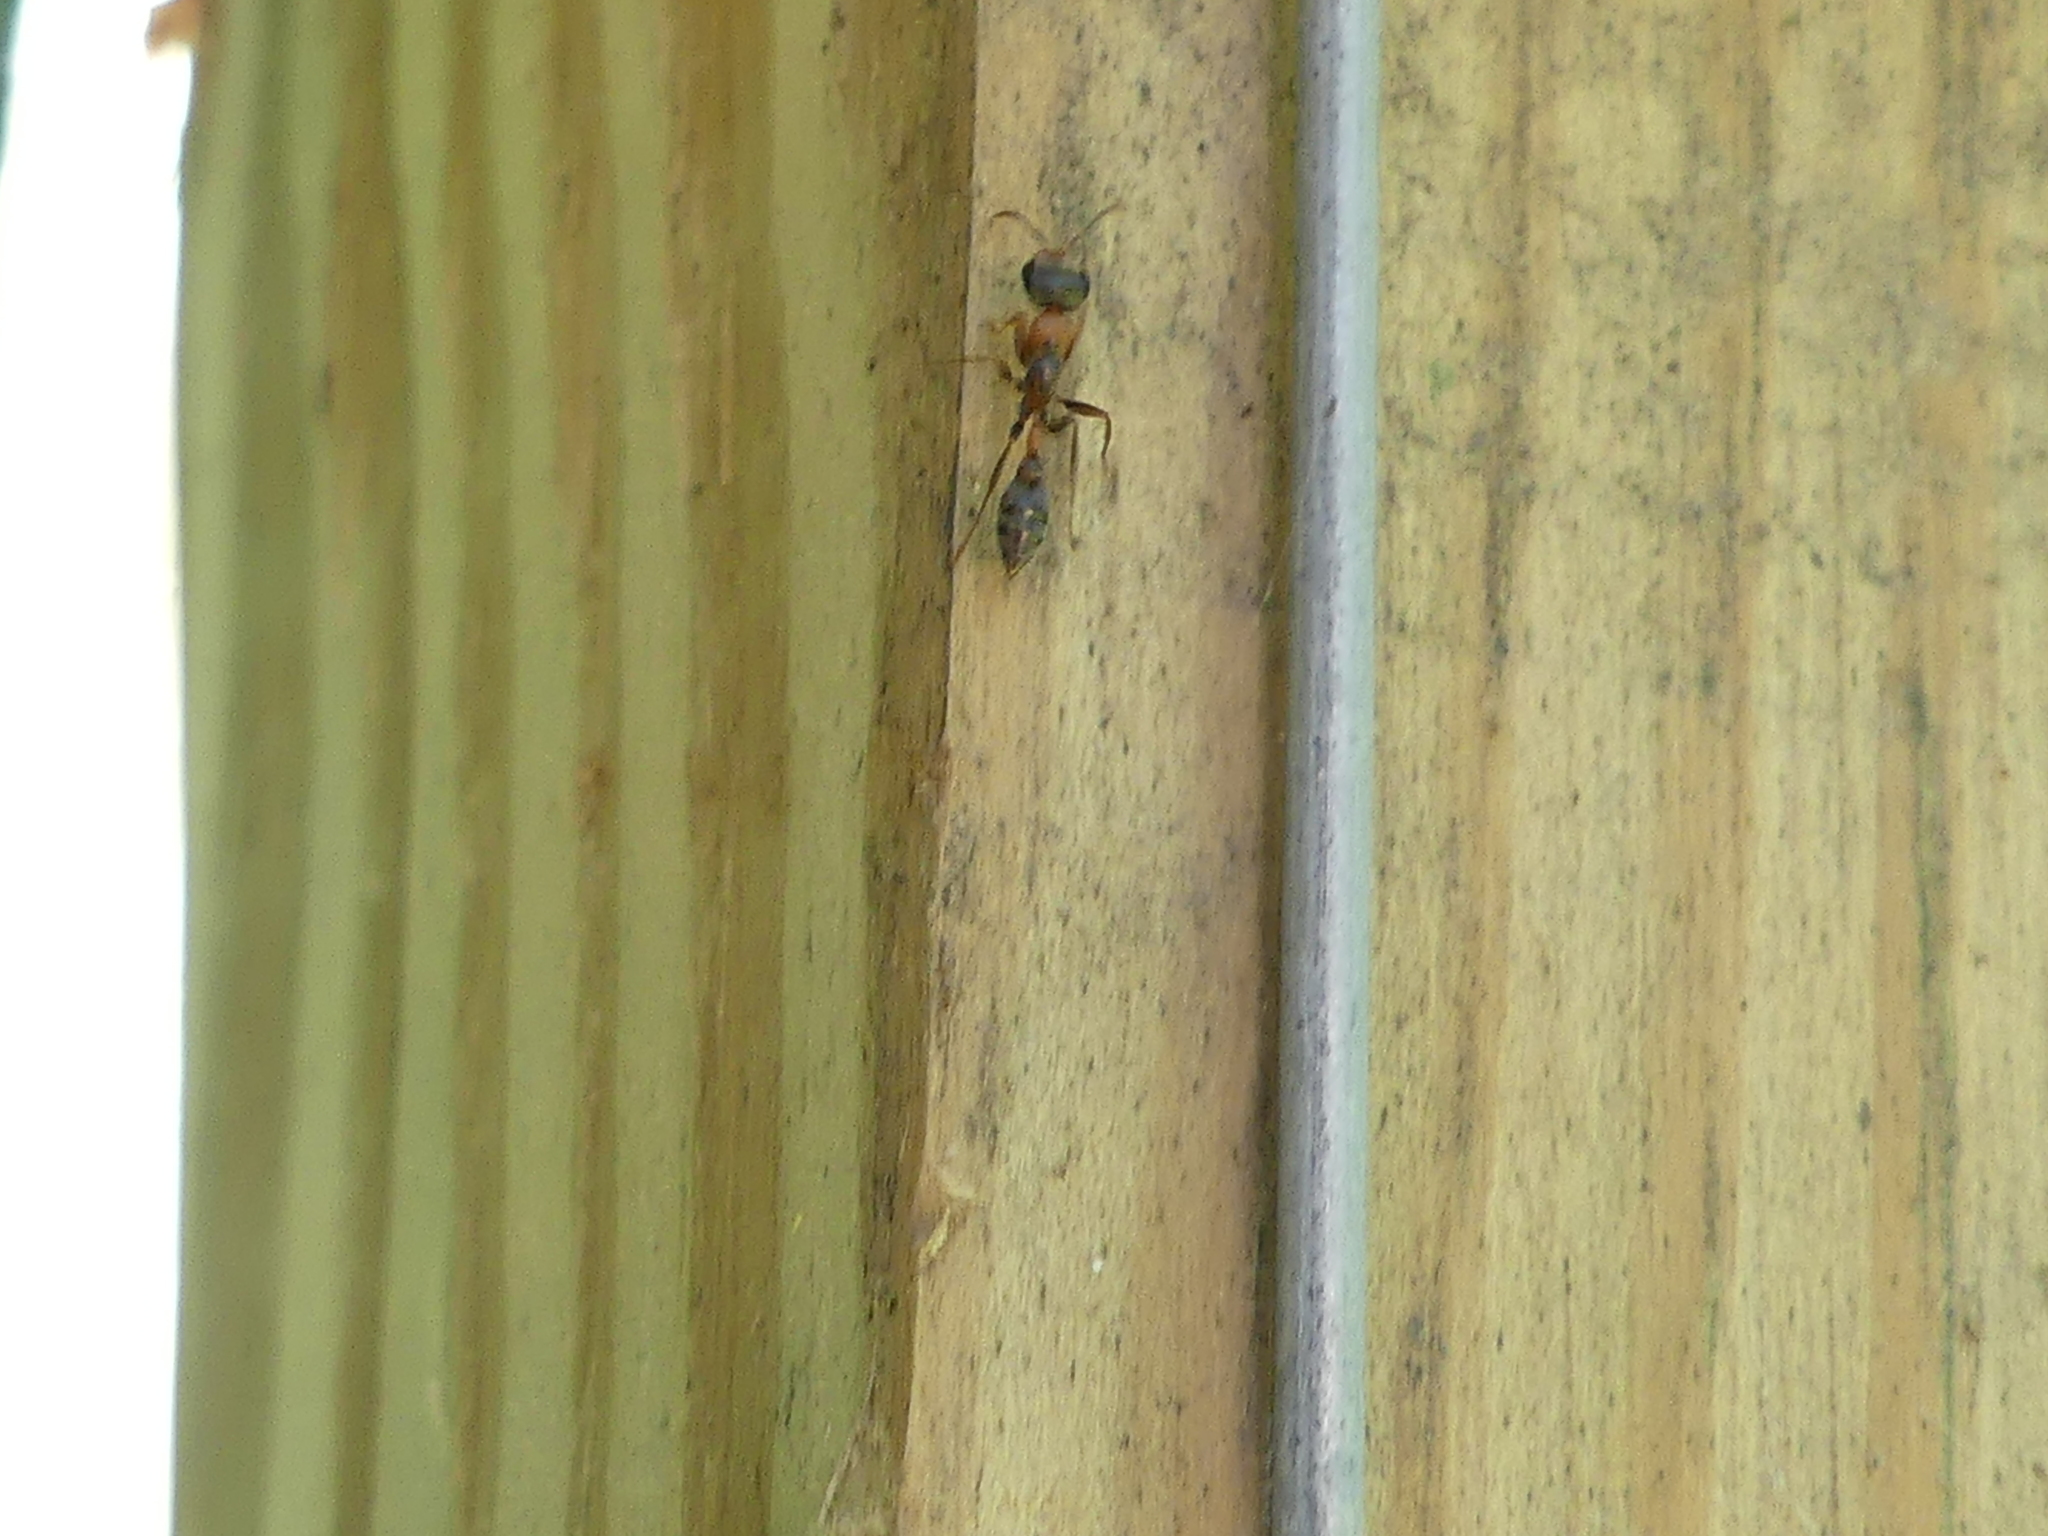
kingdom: Animalia
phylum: Arthropoda
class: Insecta
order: Hymenoptera
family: Formicidae
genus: Pseudomyrmex
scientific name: Pseudomyrmex gracilis
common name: Graceful twig ant
